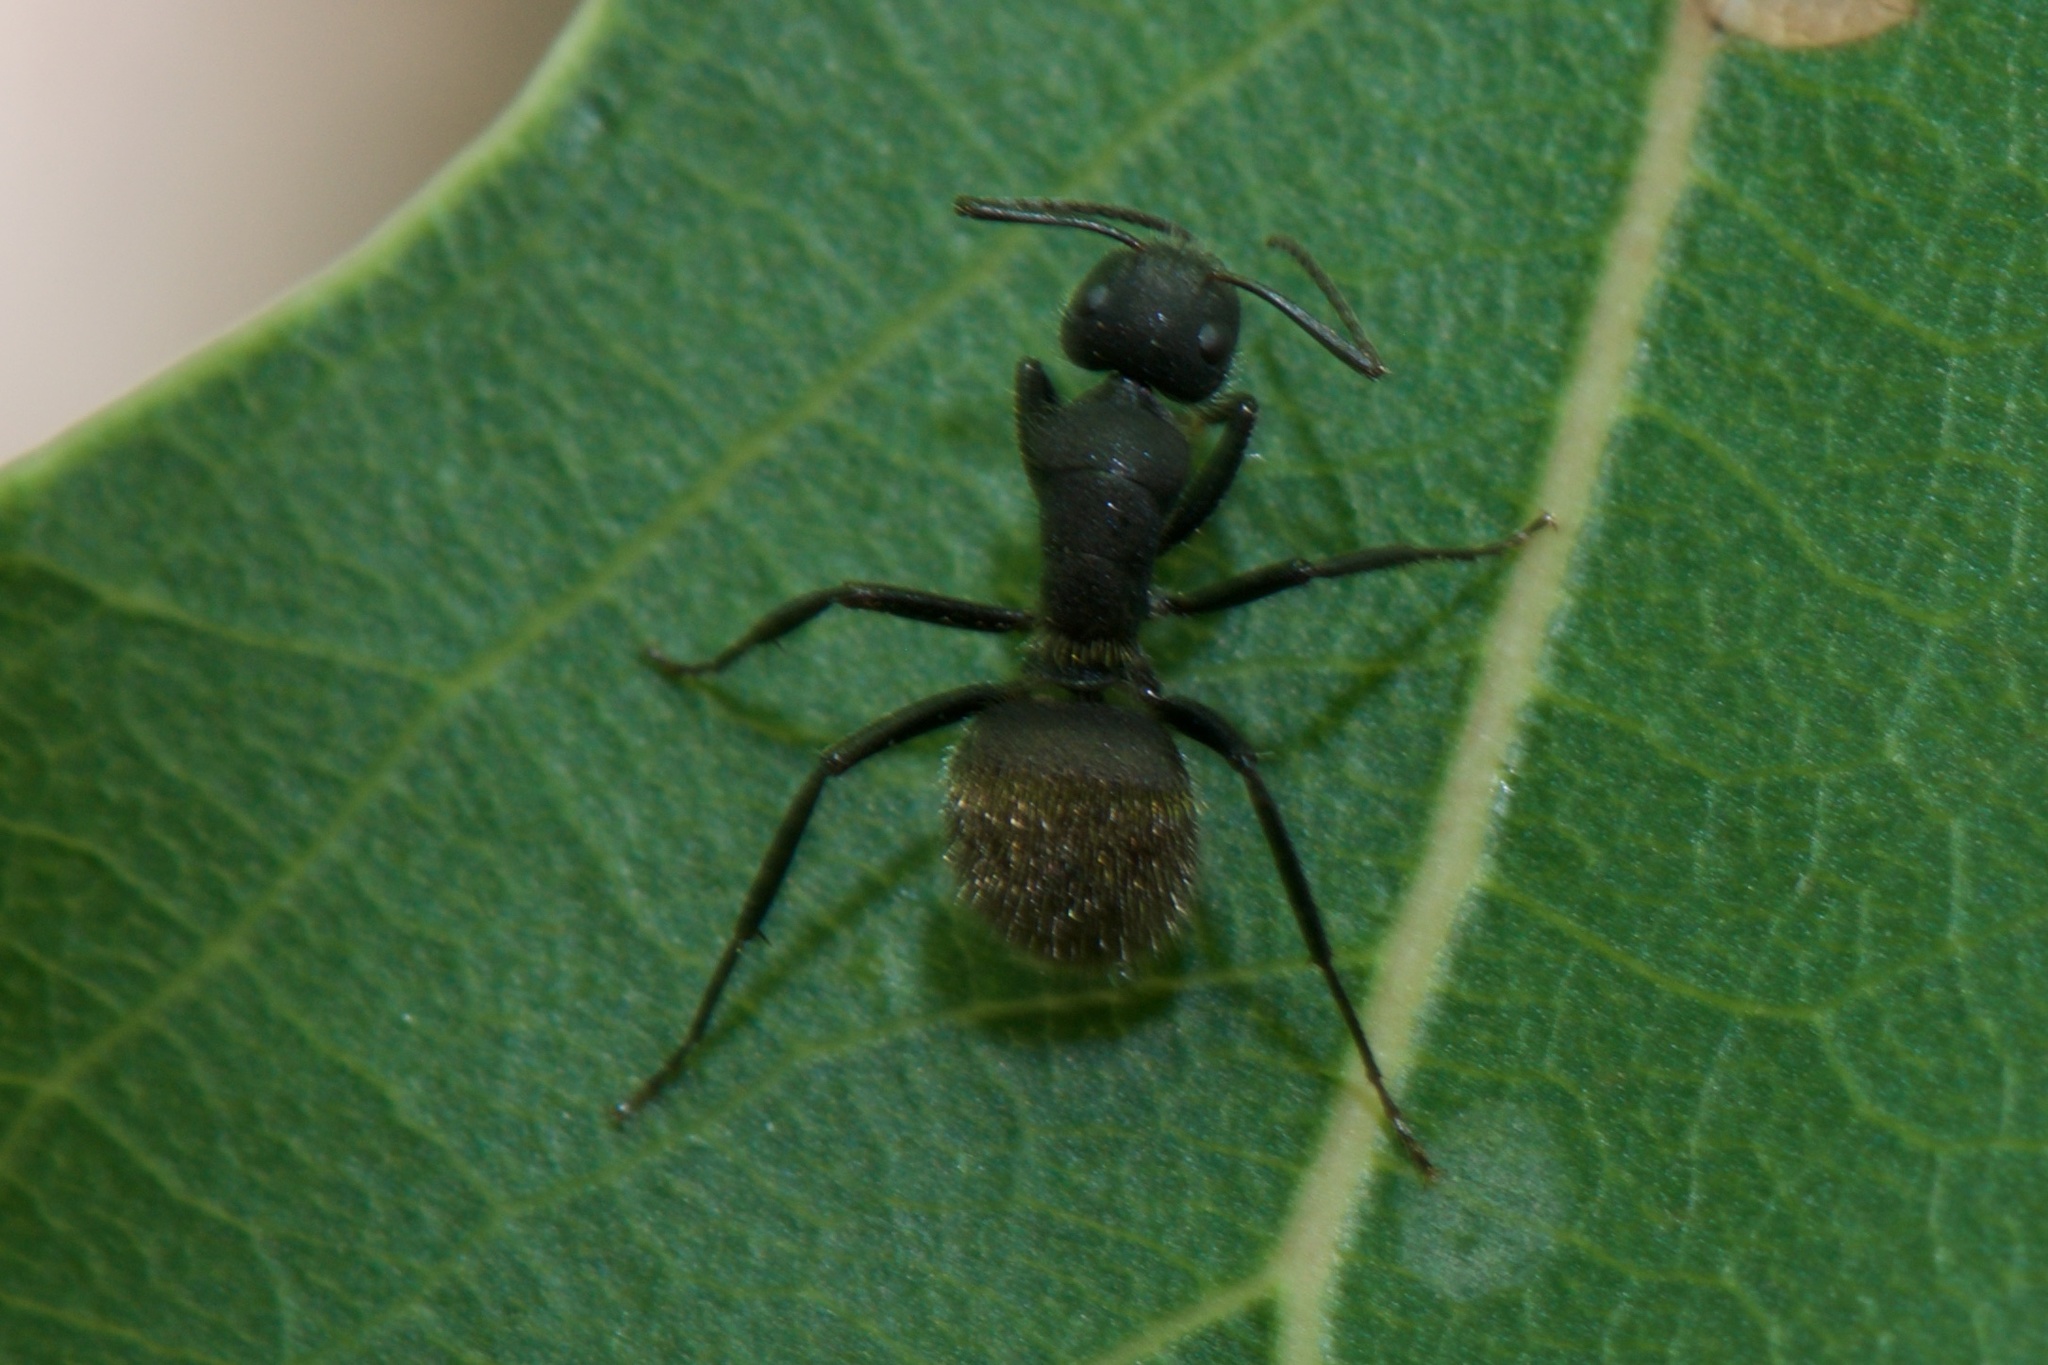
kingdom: Animalia
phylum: Arthropoda
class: Insecta
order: Hymenoptera
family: Formicidae
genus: Camponotus
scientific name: Camponotus mus
